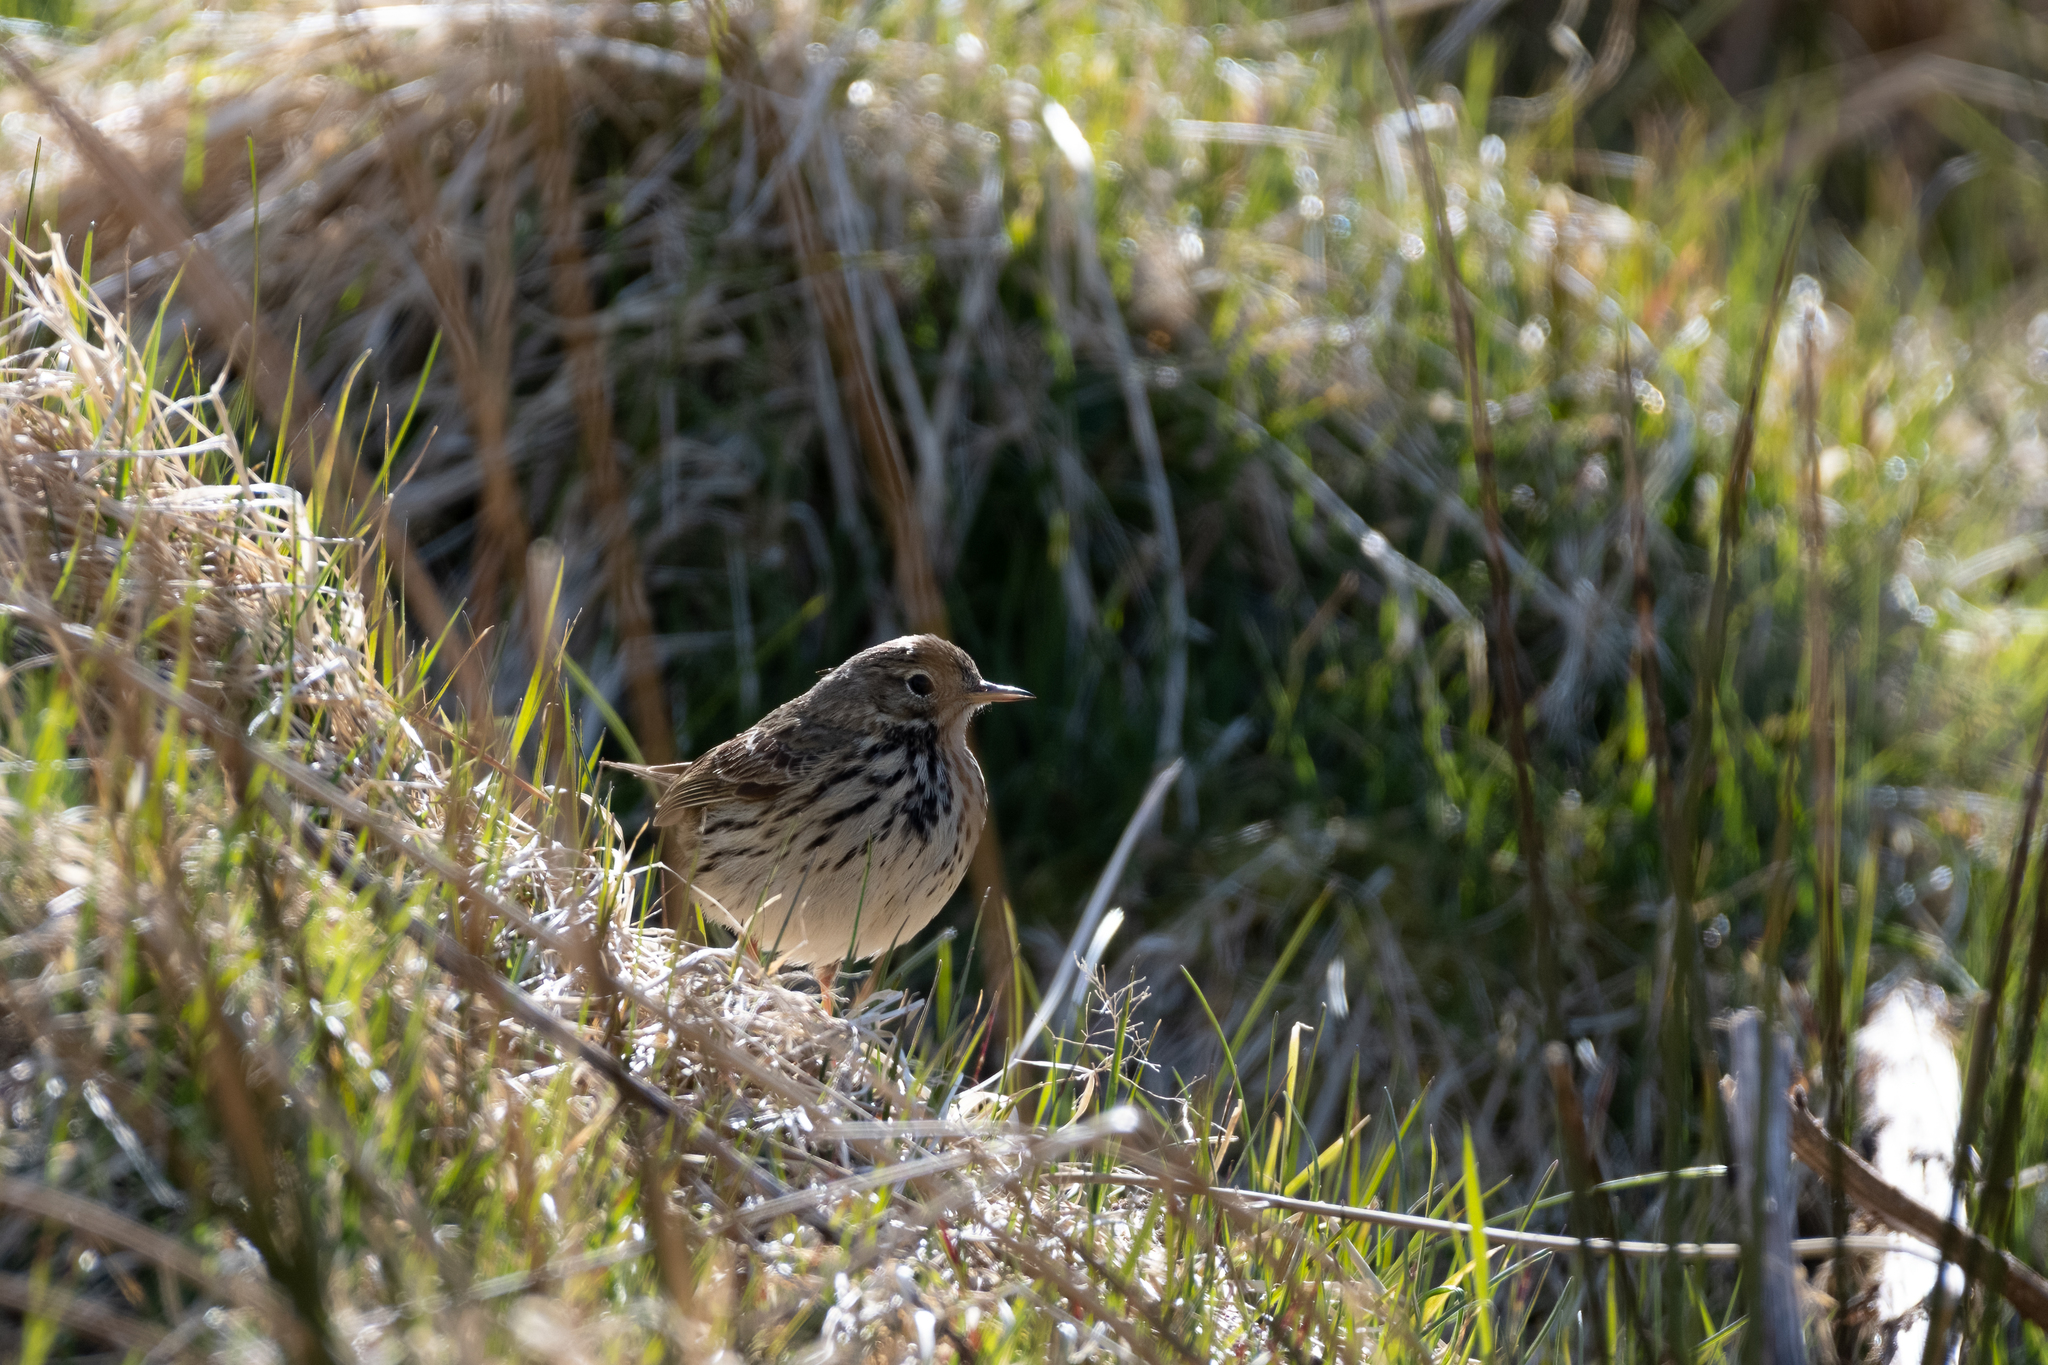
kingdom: Animalia
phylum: Chordata
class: Aves
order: Passeriformes
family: Motacillidae
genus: Anthus
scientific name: Anthus pratensis
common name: Meadow pipit
